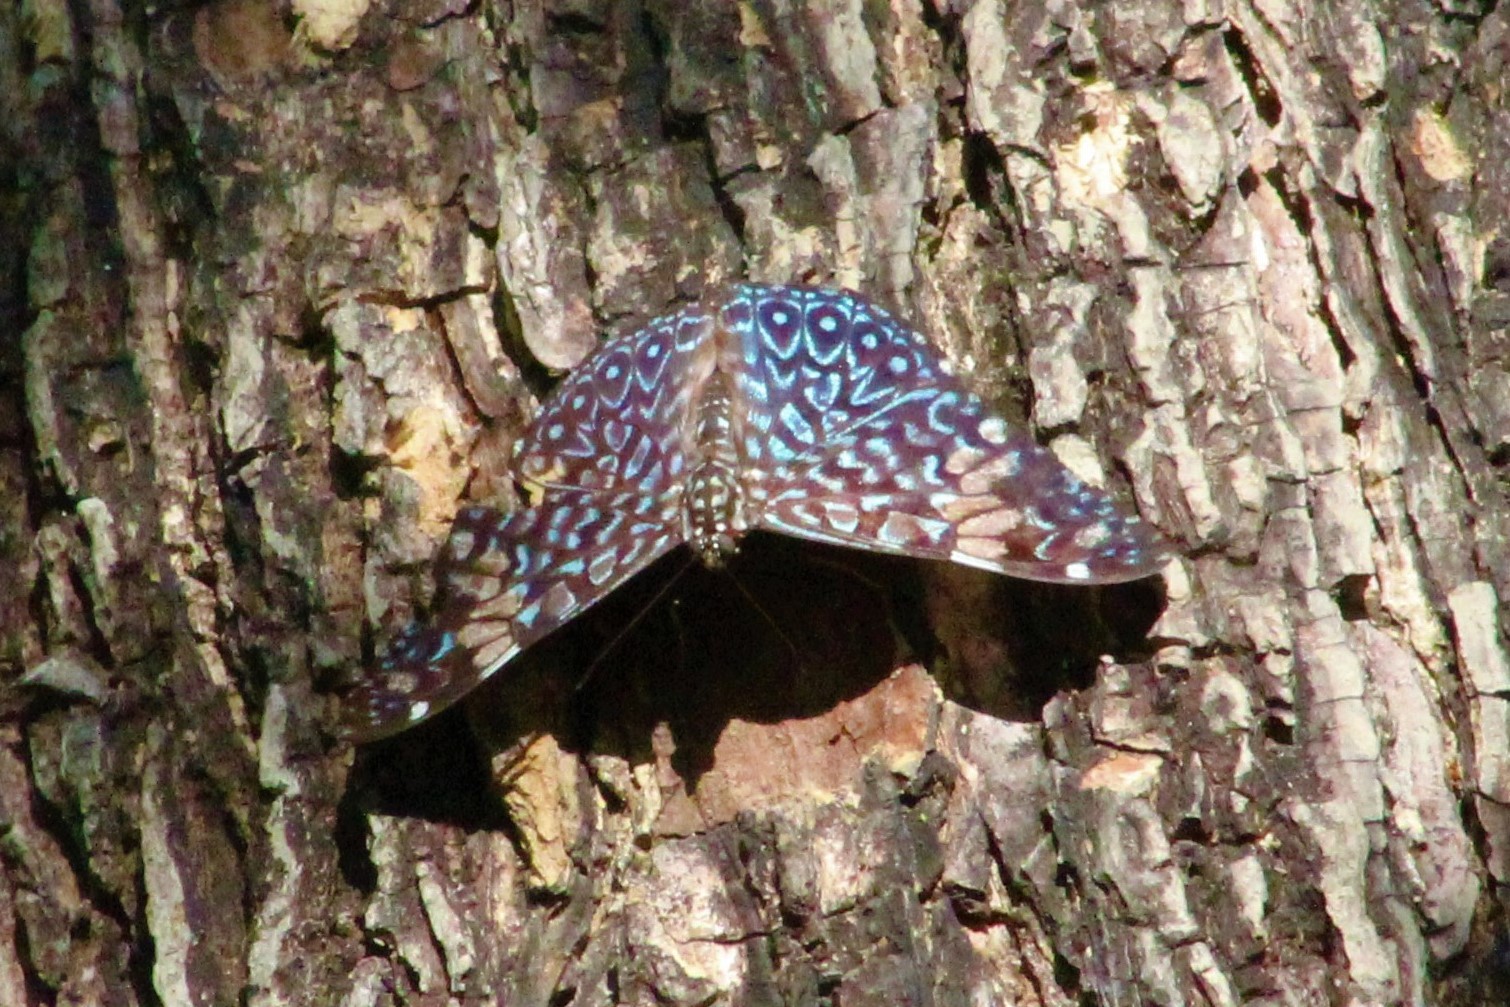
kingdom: Animalia
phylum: Arthropoda
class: Insecta
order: Lepidoptera
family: Nymphalidae
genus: Hamadryas
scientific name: Hamadryas amphinome
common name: Red cracker
